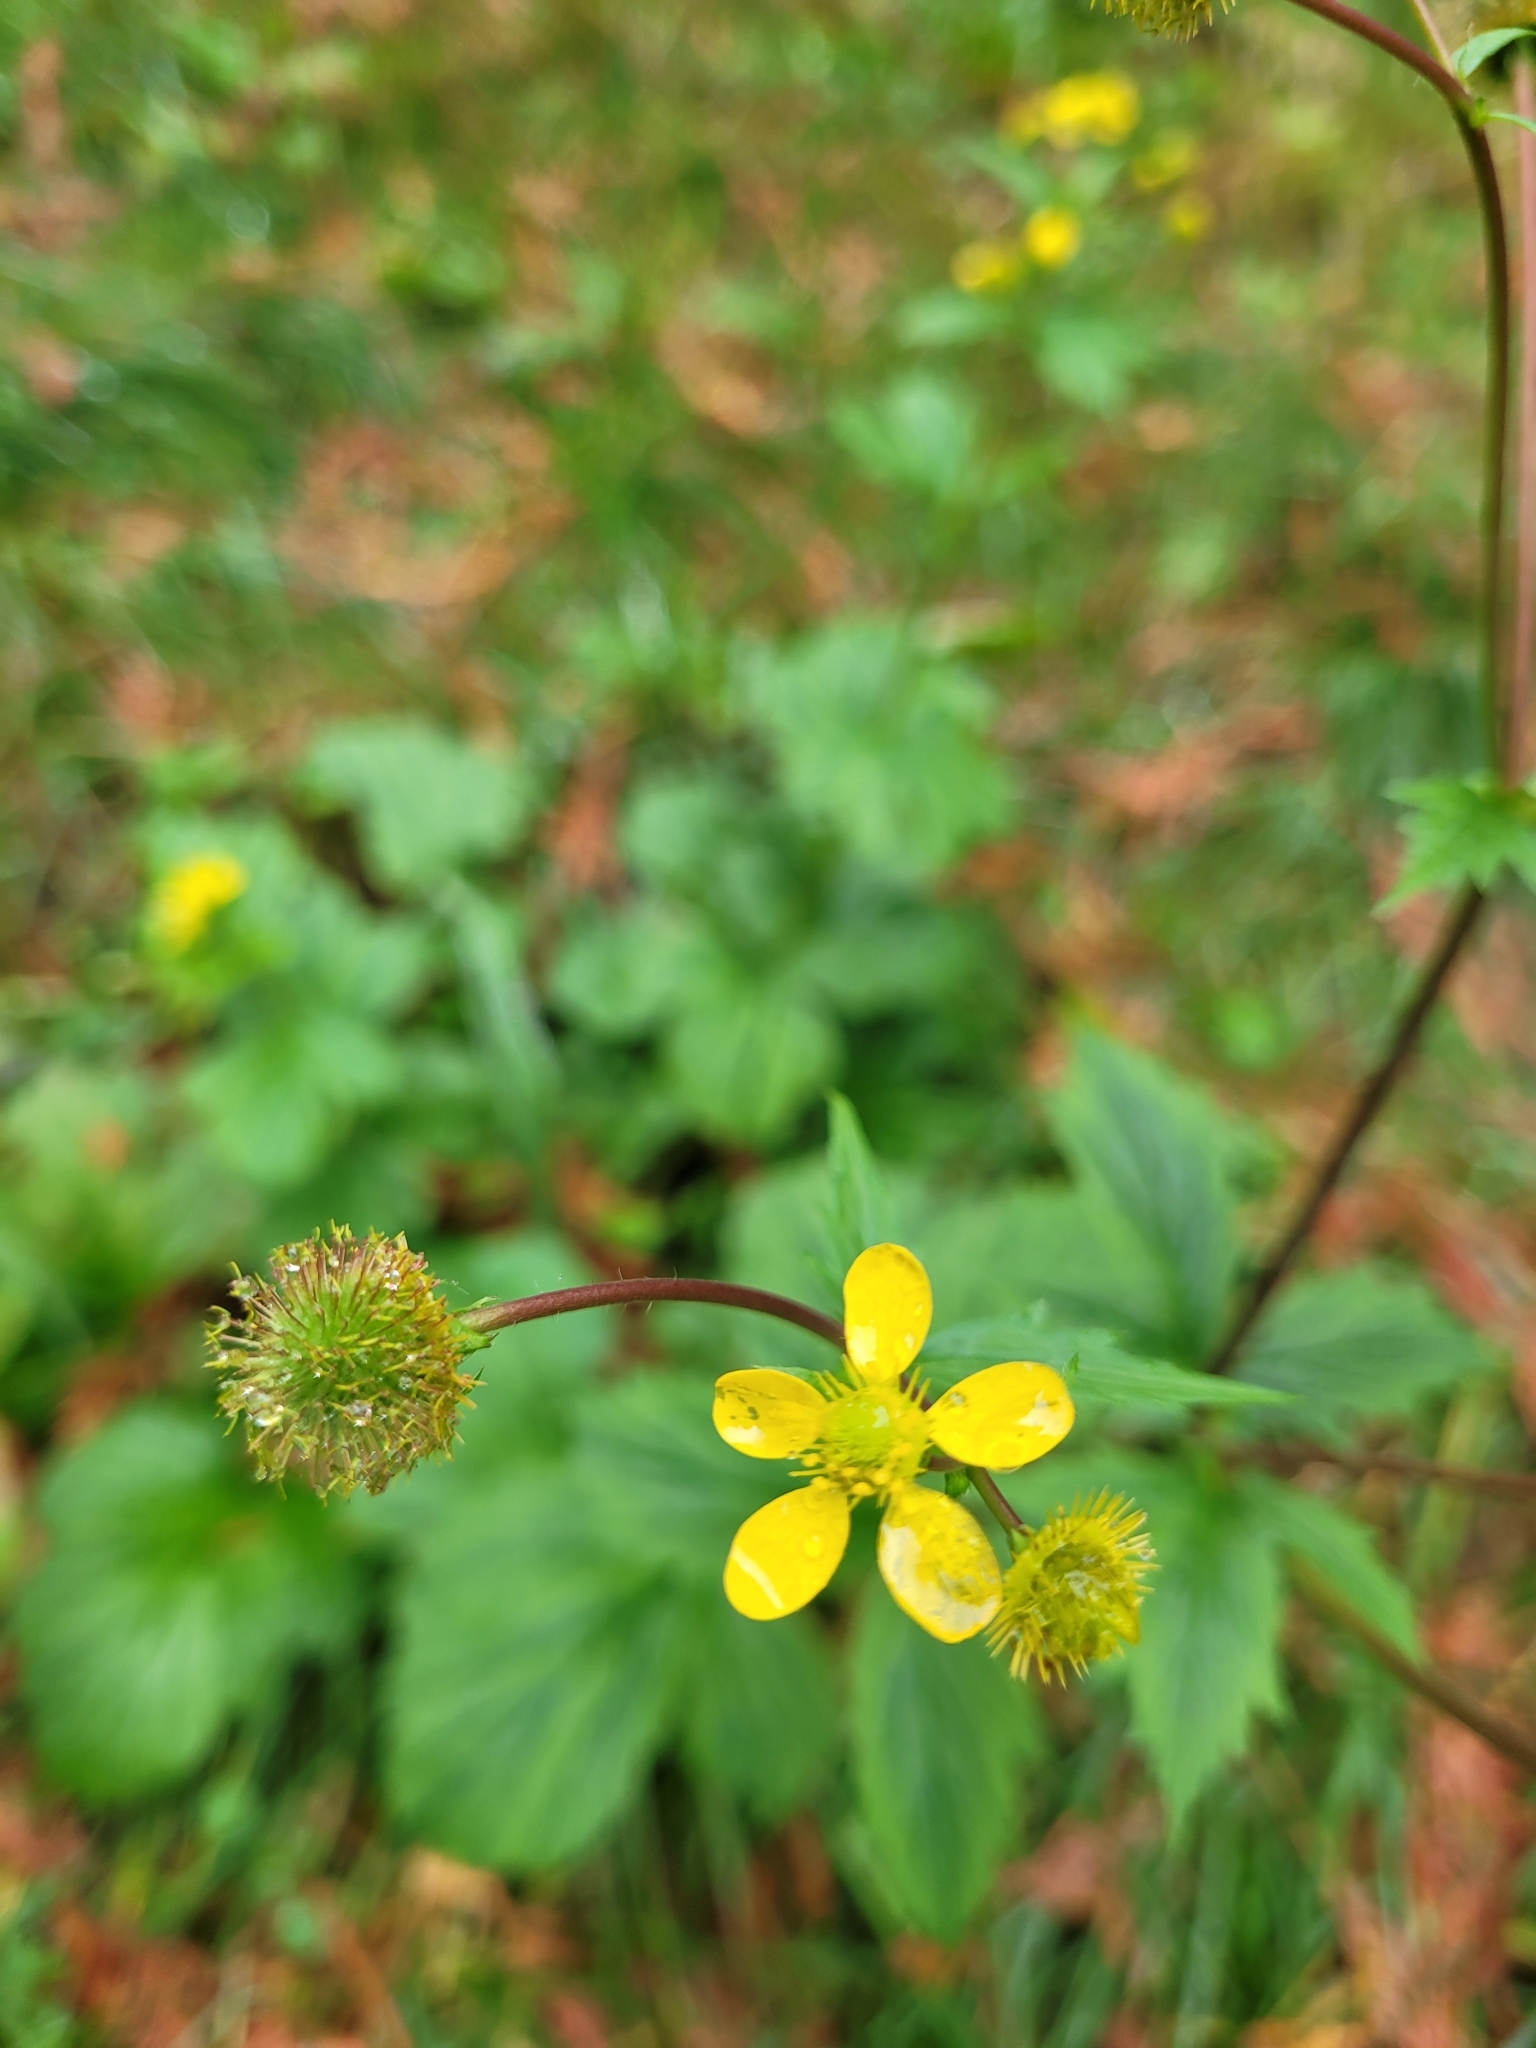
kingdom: Plantae
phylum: Tracheophyta
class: Magnoliopsida
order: Rosales
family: Rosaceae
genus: Geum
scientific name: Geum macrophyllum
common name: Large-leaved avens
